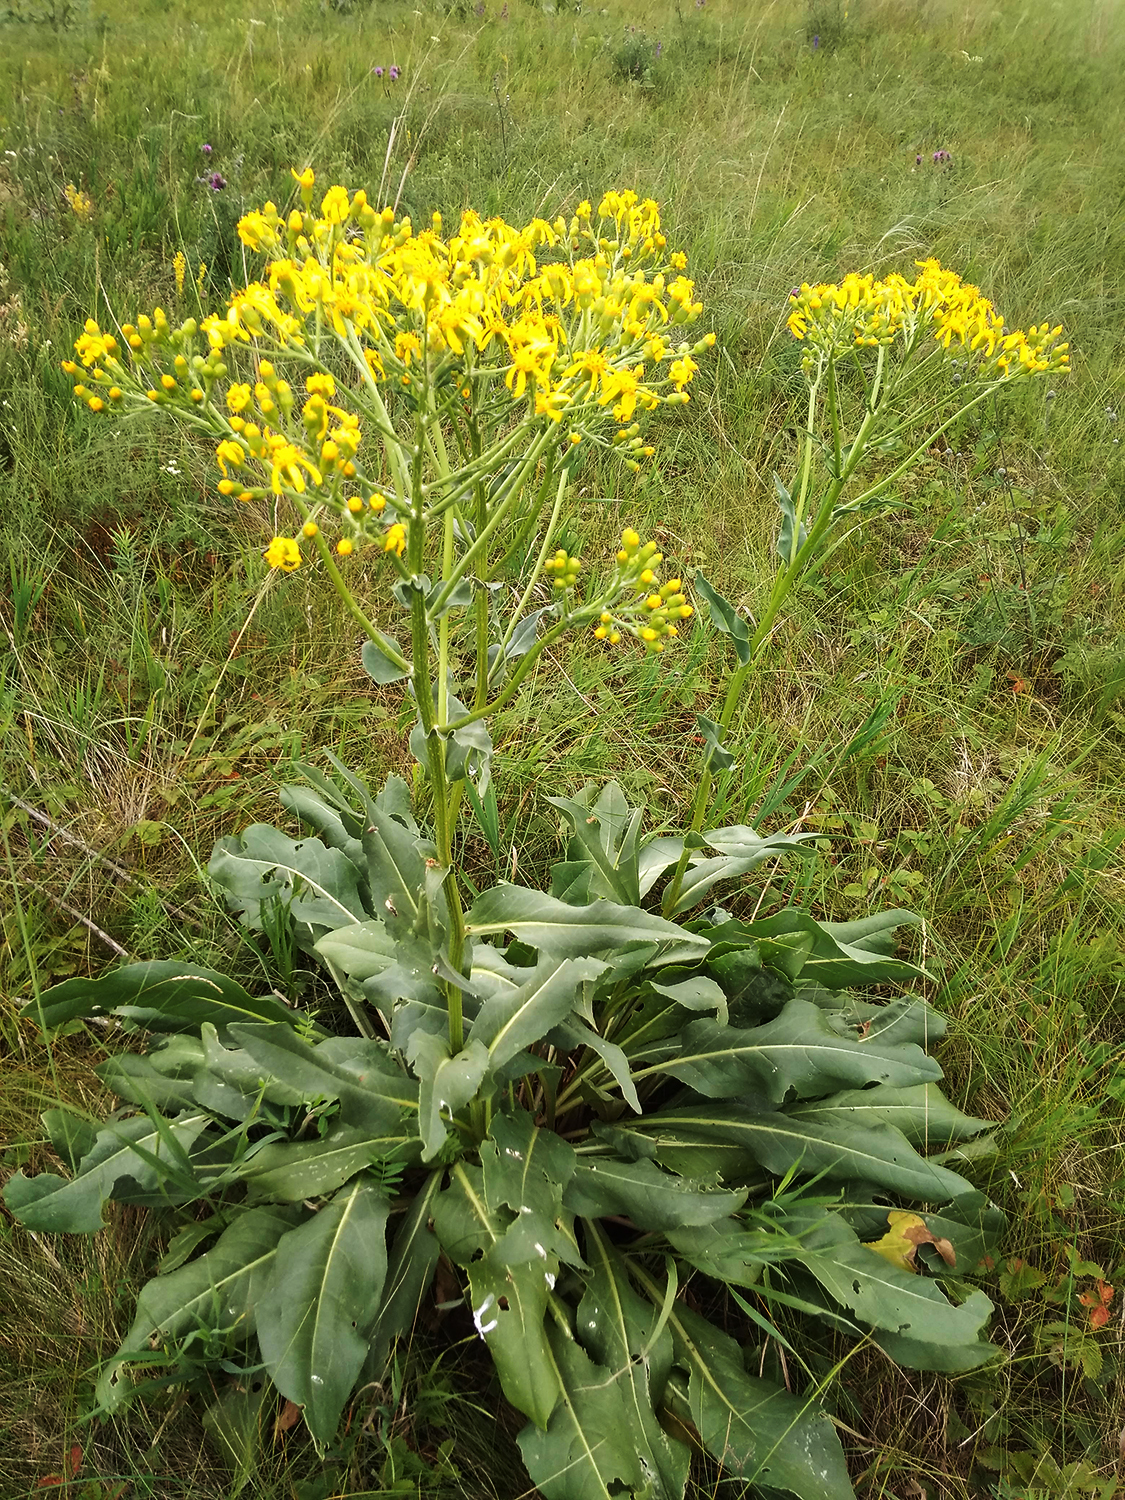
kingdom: Plantae
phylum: Tracheophyta
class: Magnoliopsida
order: Asterales
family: Asteraceae
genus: Senecio
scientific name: Senecio doria
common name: Golden ragwort
